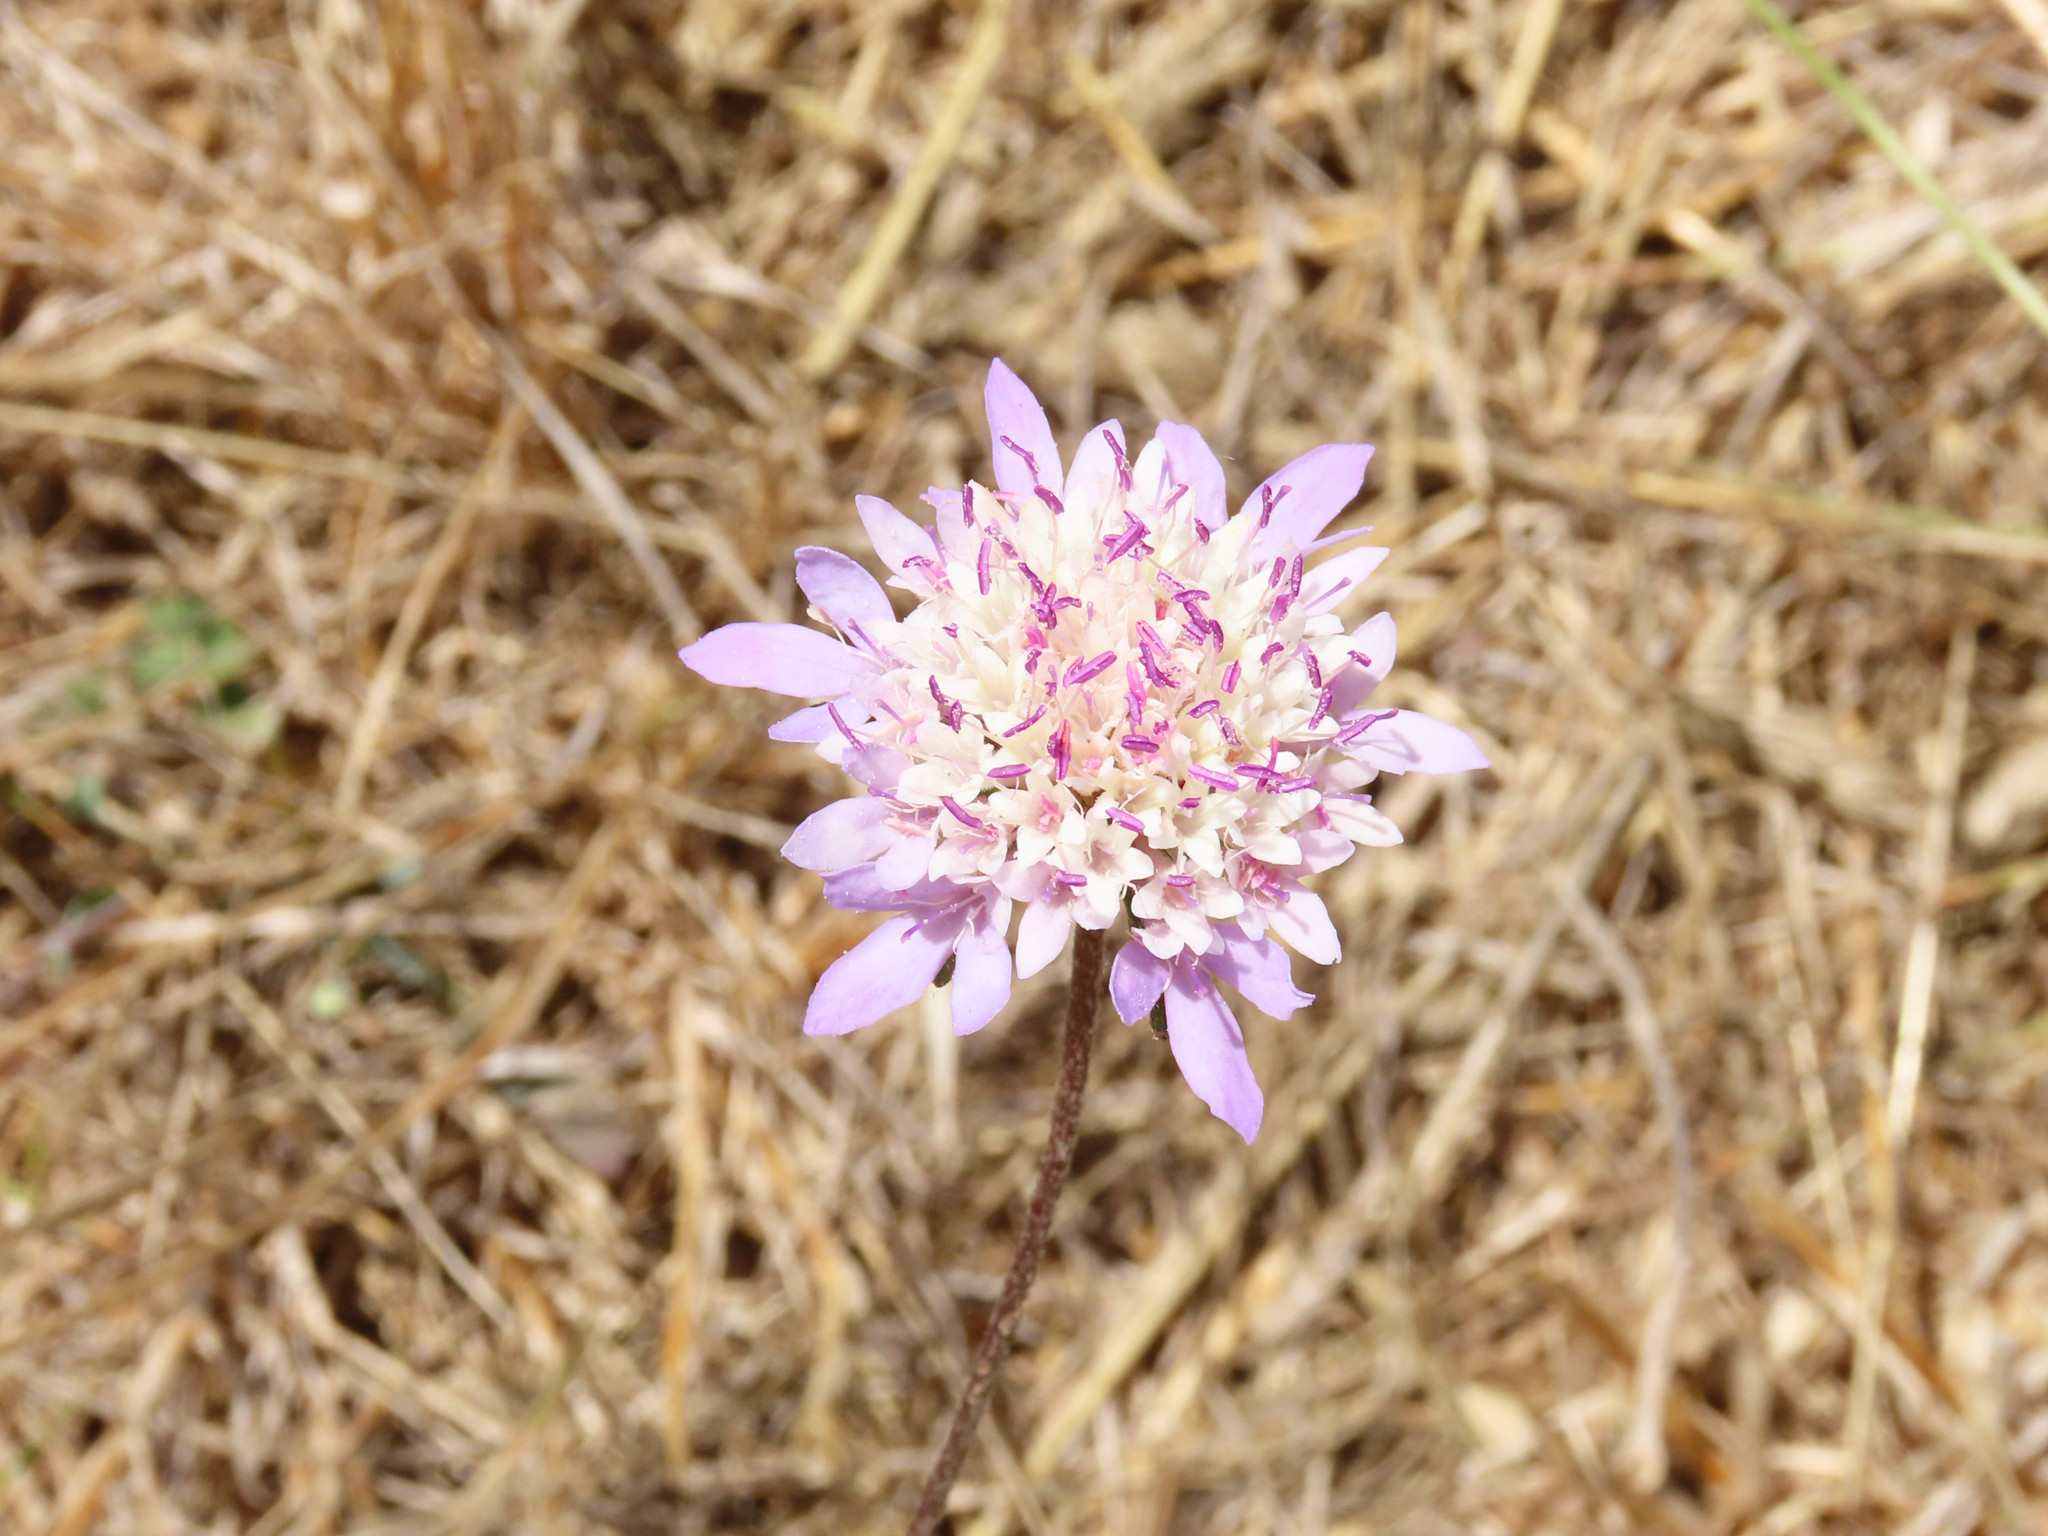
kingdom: Plantae
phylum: Tracheophyta
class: Magnoliopsida
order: Dipsacales
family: Caprifoliaceae
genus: Sixalix
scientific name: Sixalix atropurpurea
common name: Sweet scabious
